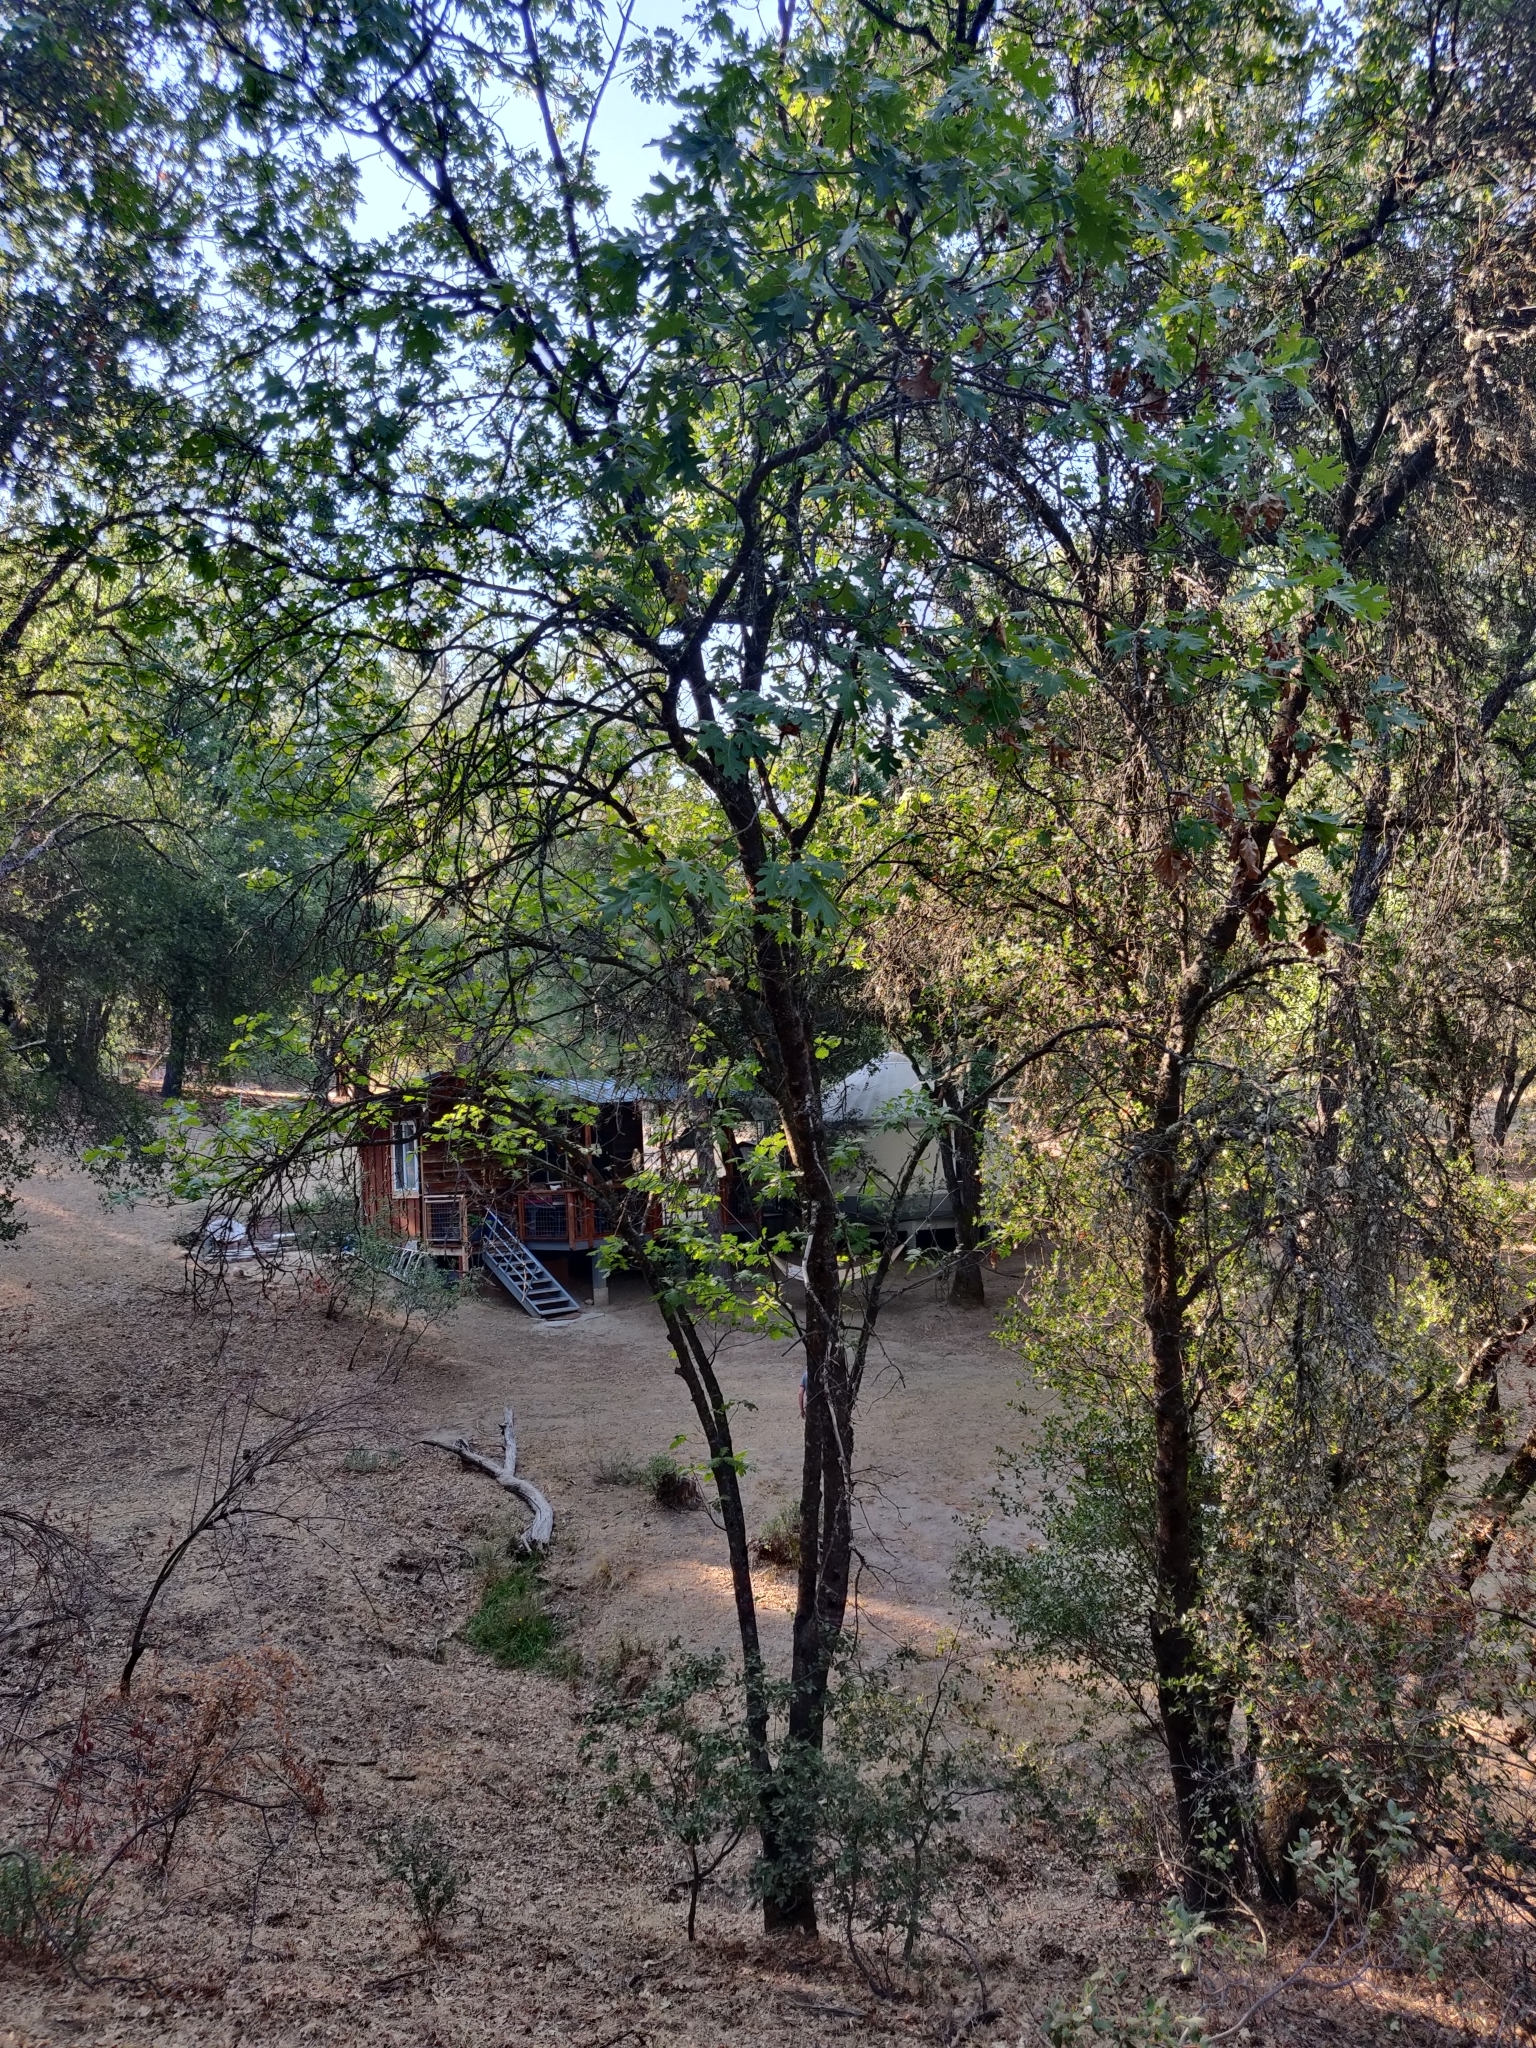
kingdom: Plantae
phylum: Tracheophyta
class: Magnoliopsida
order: Fagales
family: Fagaceae
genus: Quercus
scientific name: Quercus kelloggii
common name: California black oak
